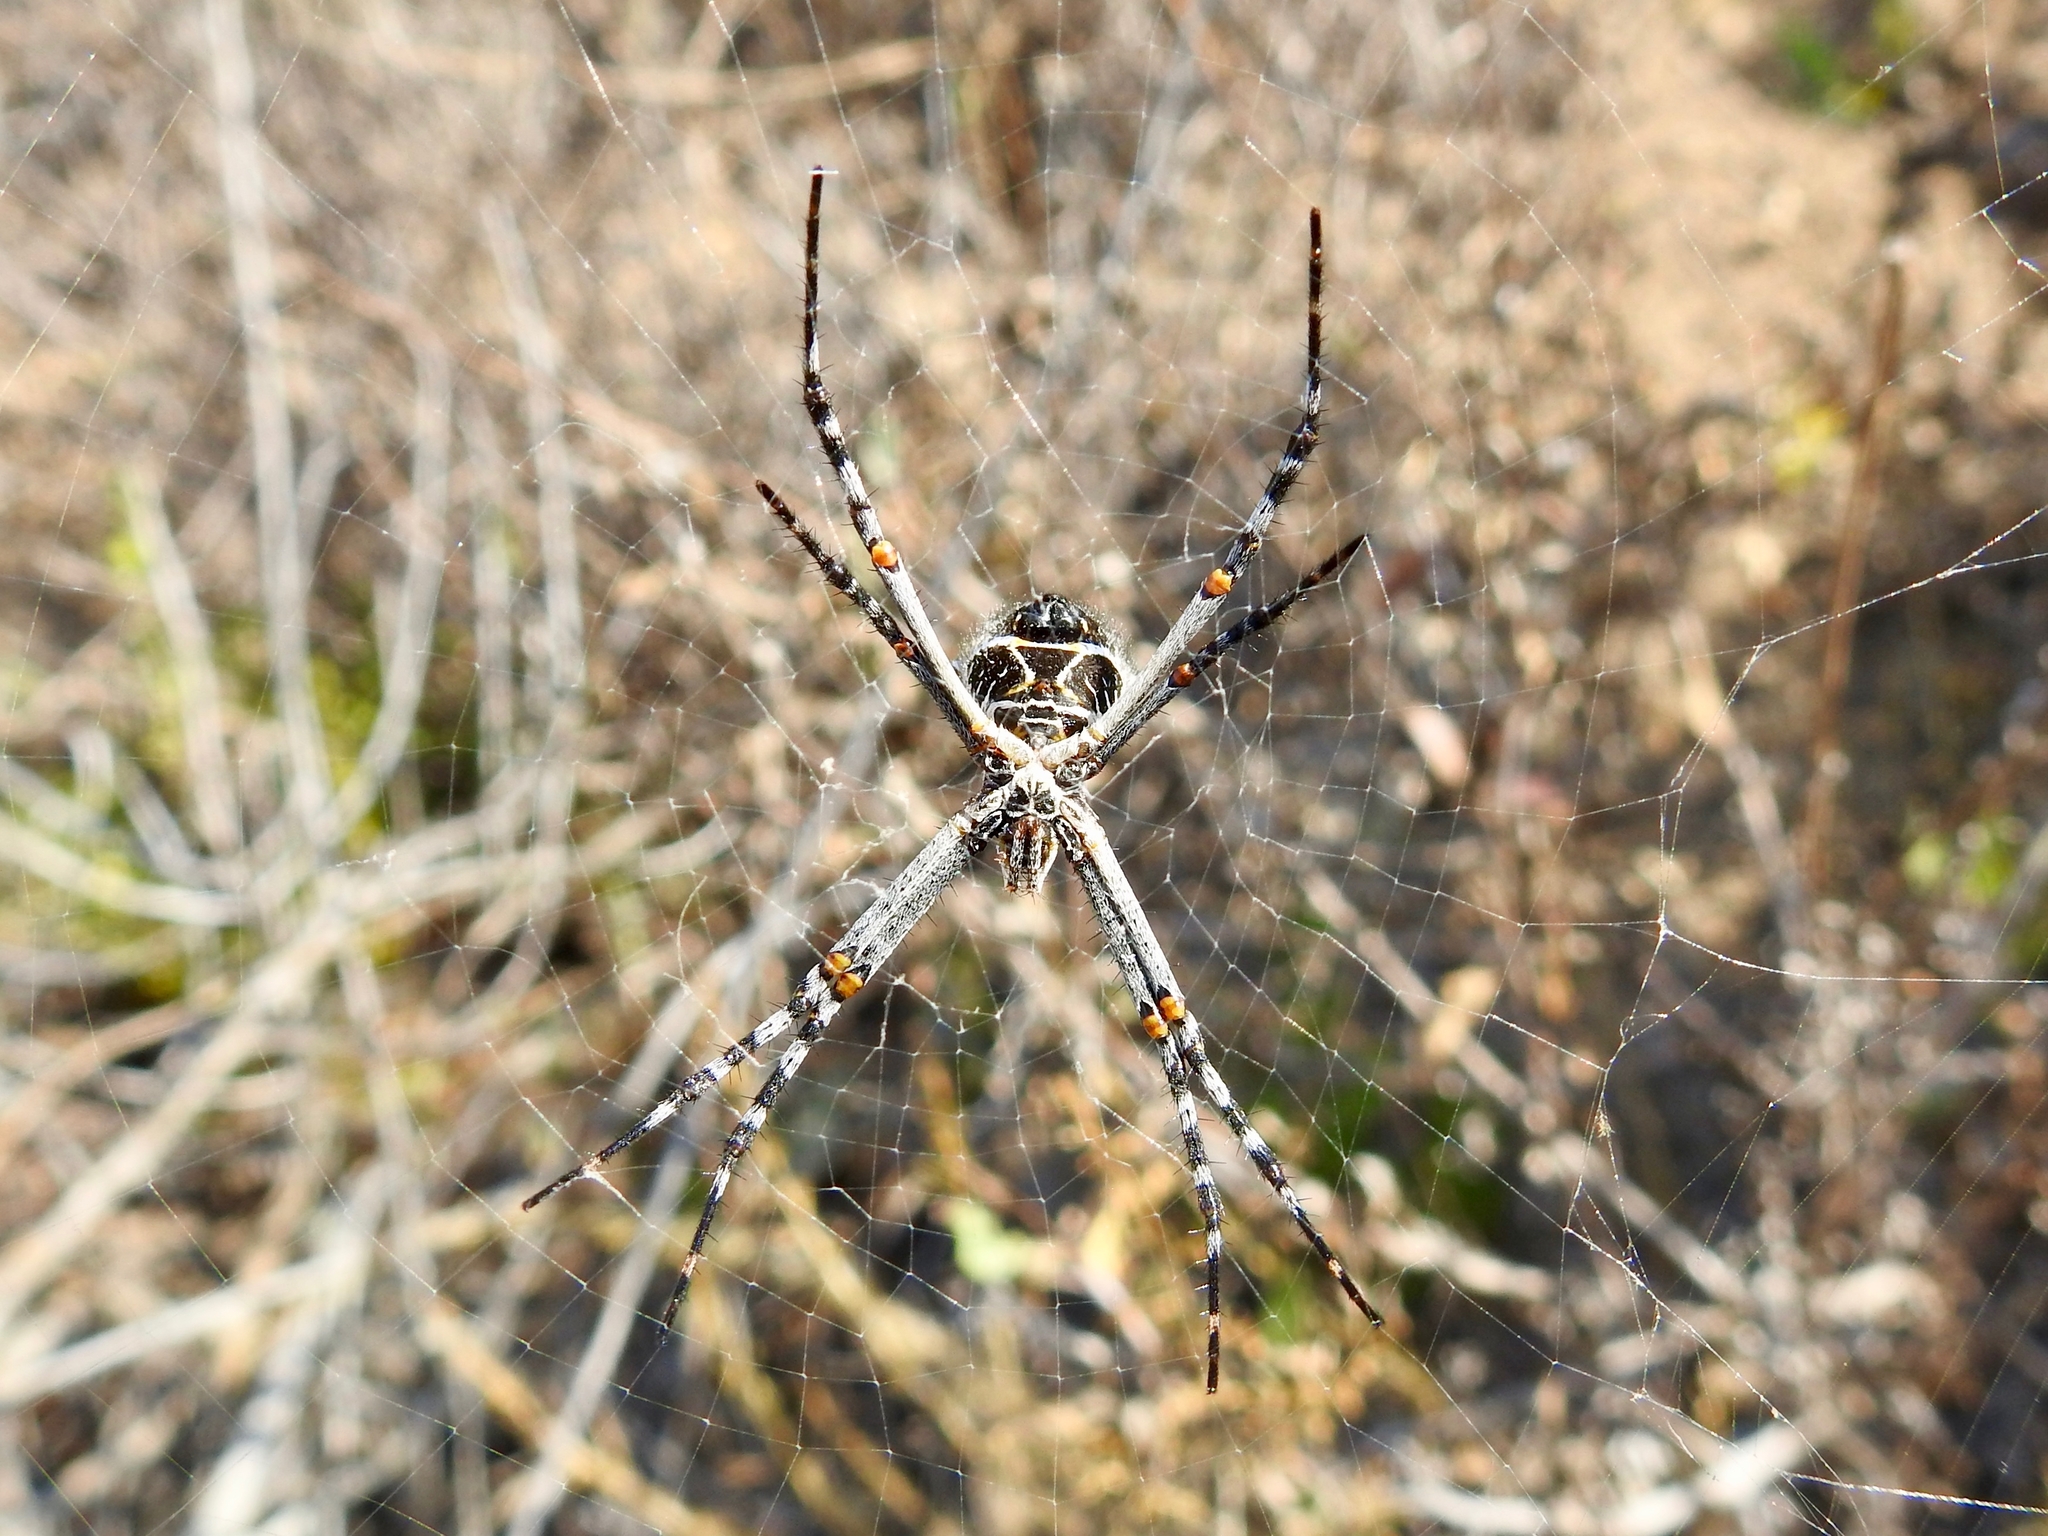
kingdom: Animalia
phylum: Arthropoda
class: Arachnida
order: Araneae
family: Araneidae
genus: Argiope
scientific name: Argiope argentata
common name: Orb weavers
